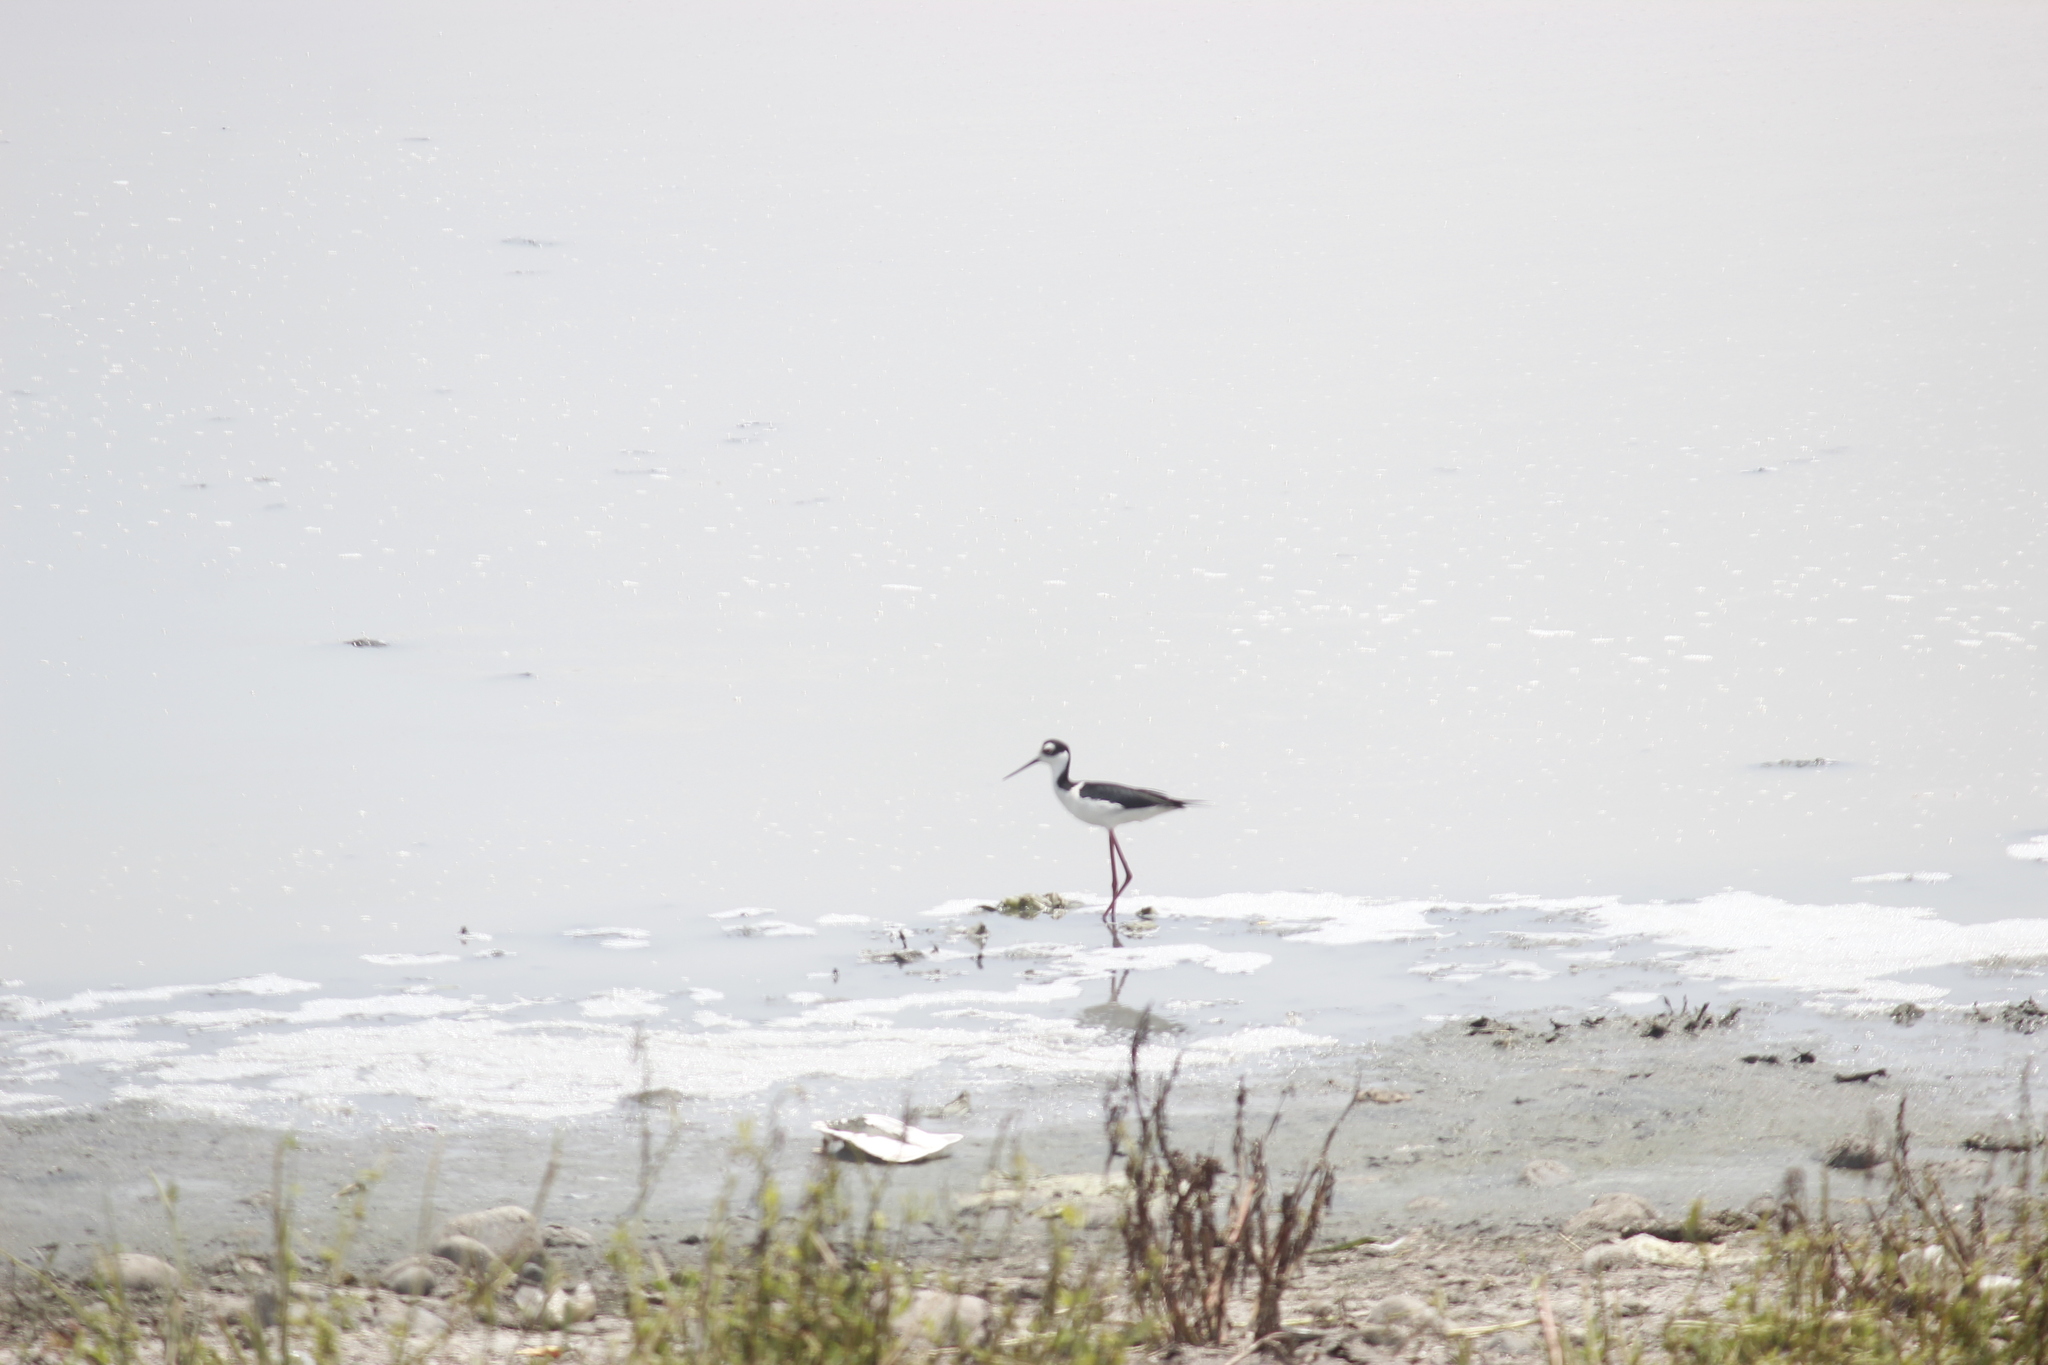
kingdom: Animalia
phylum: Chordata
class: Aves
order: Charadriiformes
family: Recurvirostridae
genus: Himantopus
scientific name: Himantopus mexicanus
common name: Black-necked stilt
